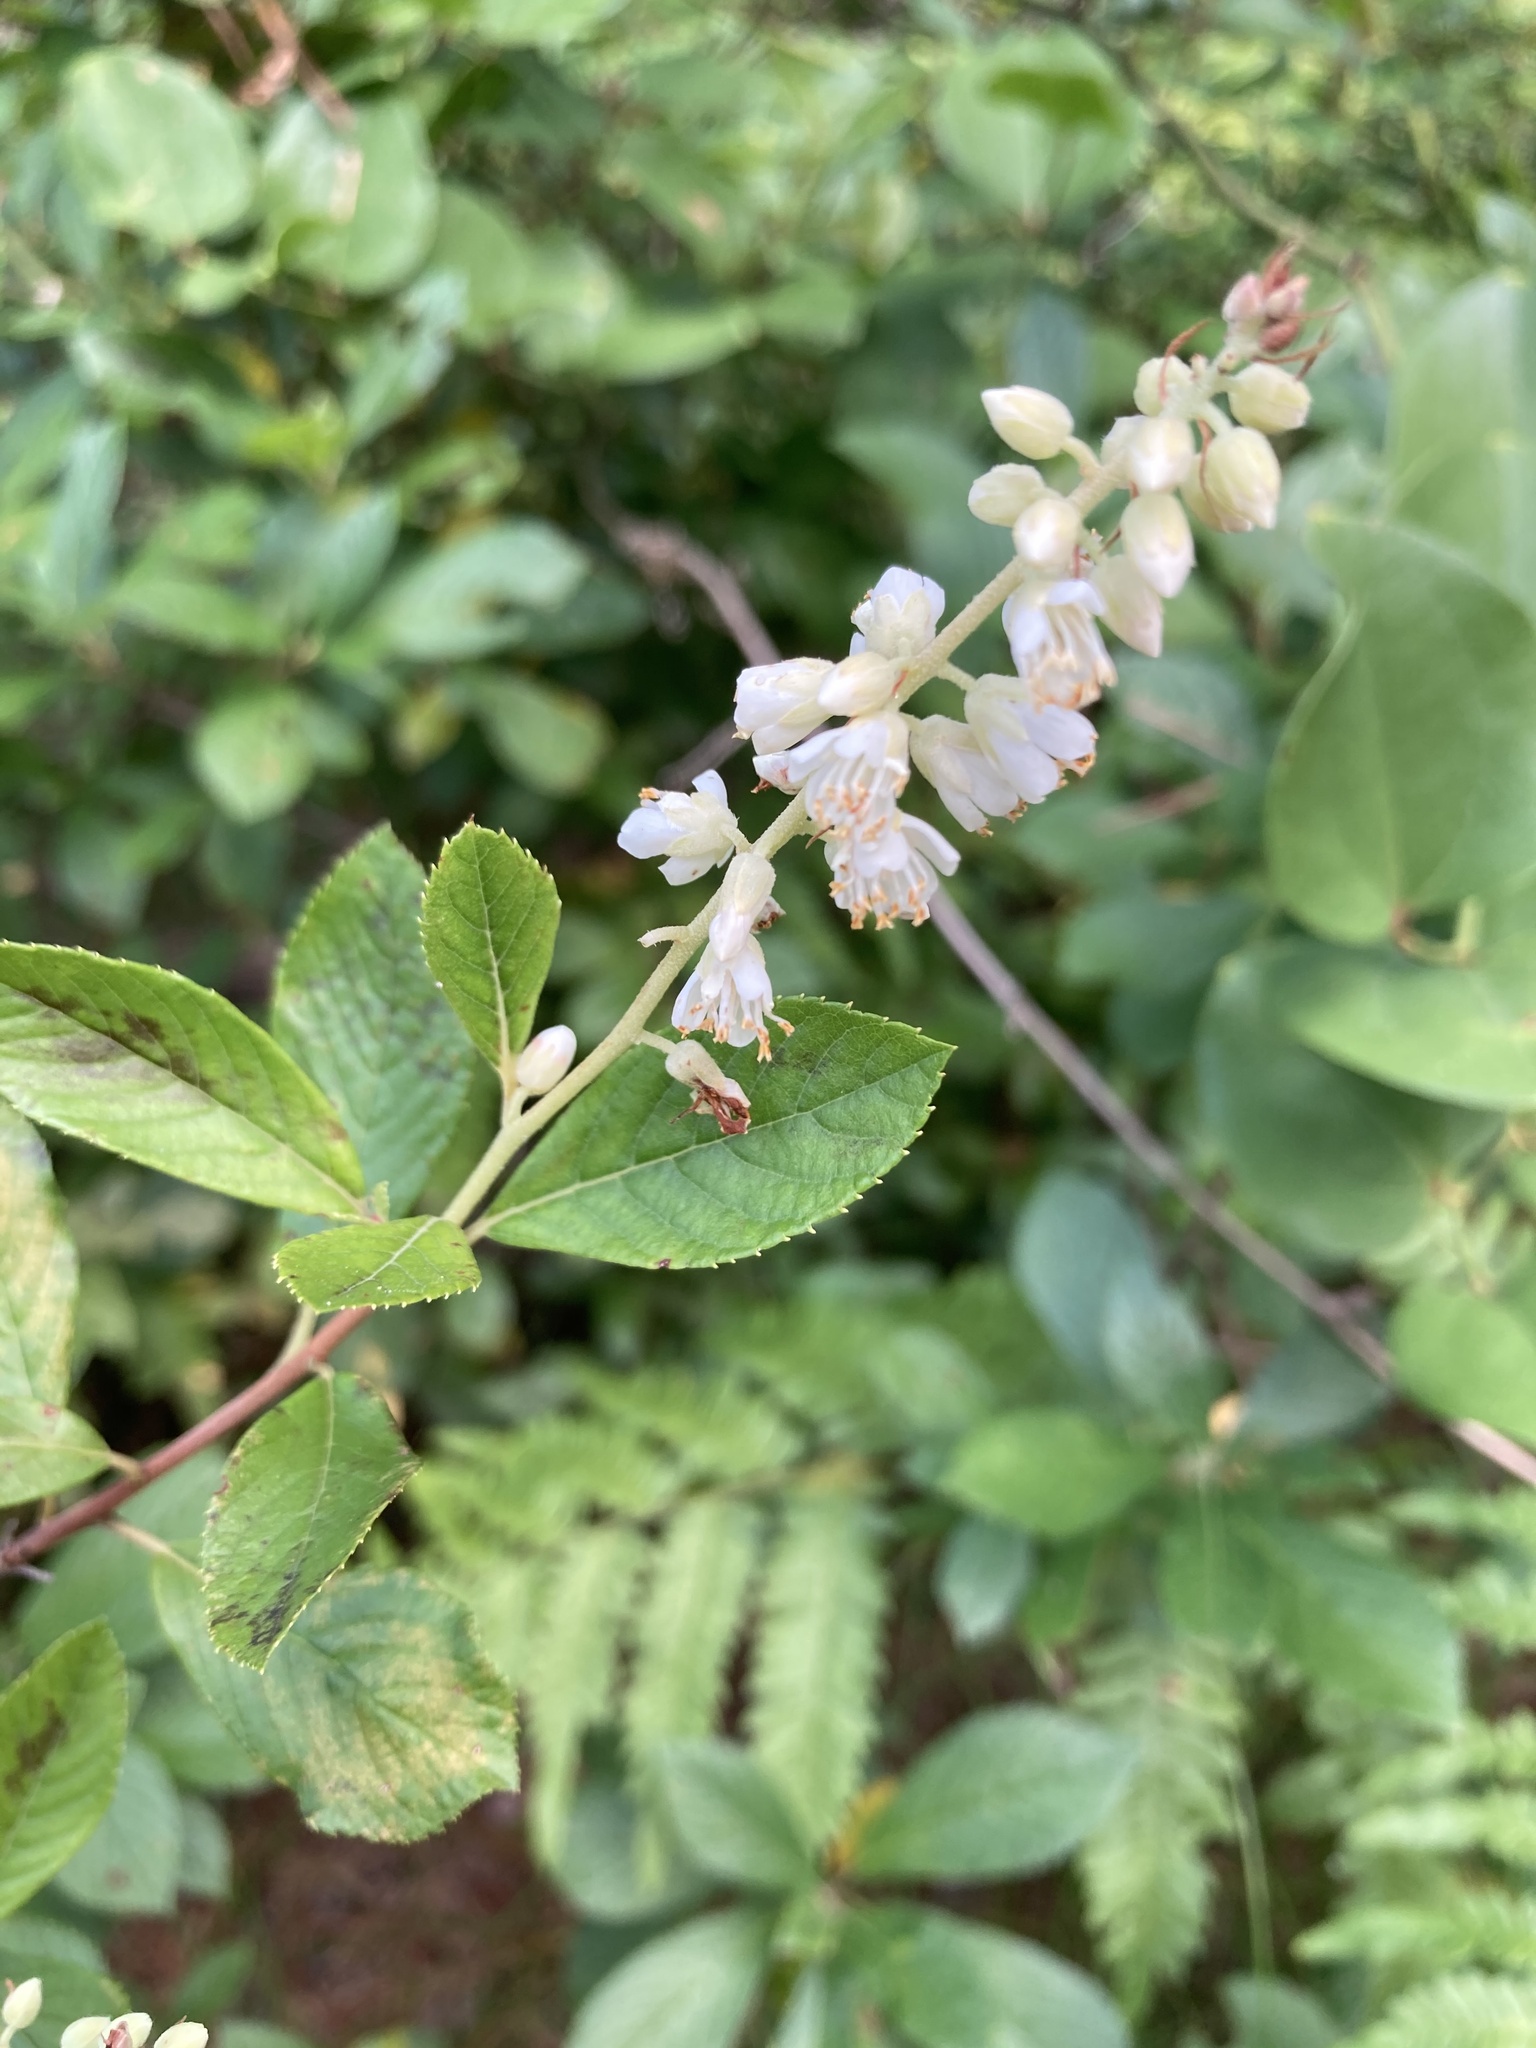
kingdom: Plantae
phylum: Tracheophyta
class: Magnoliopsida
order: Ericales
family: Clethraceae
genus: Clethra
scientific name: Clethra alnifolia
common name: Sweet pepperbush
